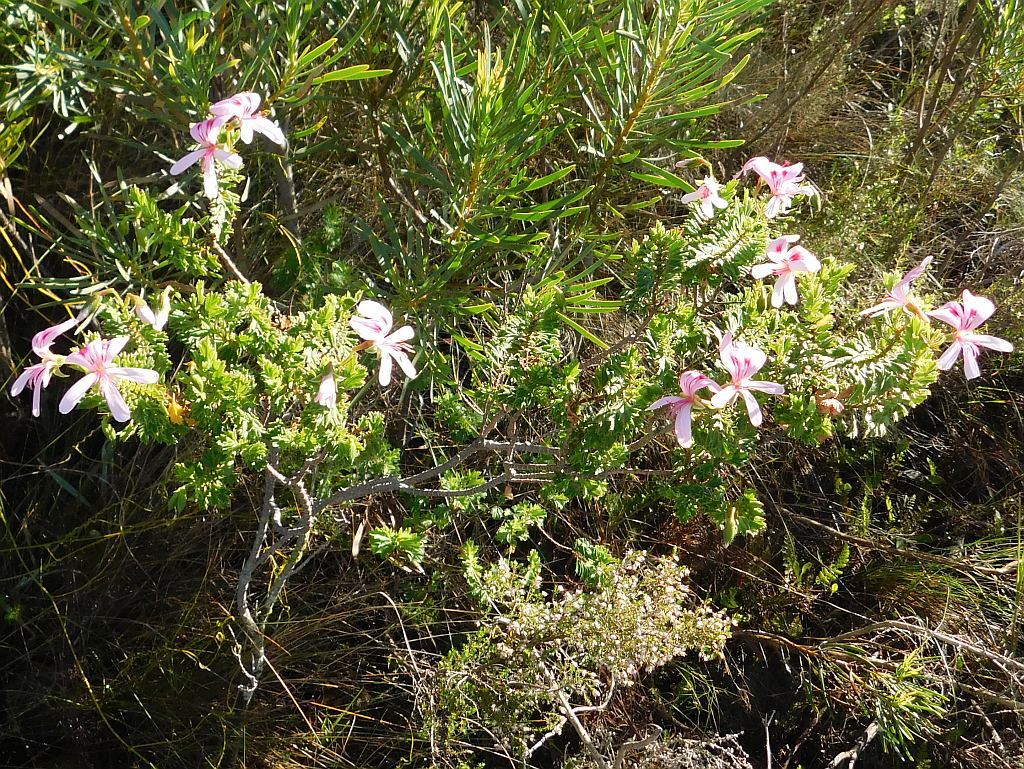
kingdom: Plantae
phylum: Tracheophyta
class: Magnoliopsida
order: Geraniales
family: Geraniaceae
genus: Pelargonium
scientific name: Pelargonium hermaniifolium
